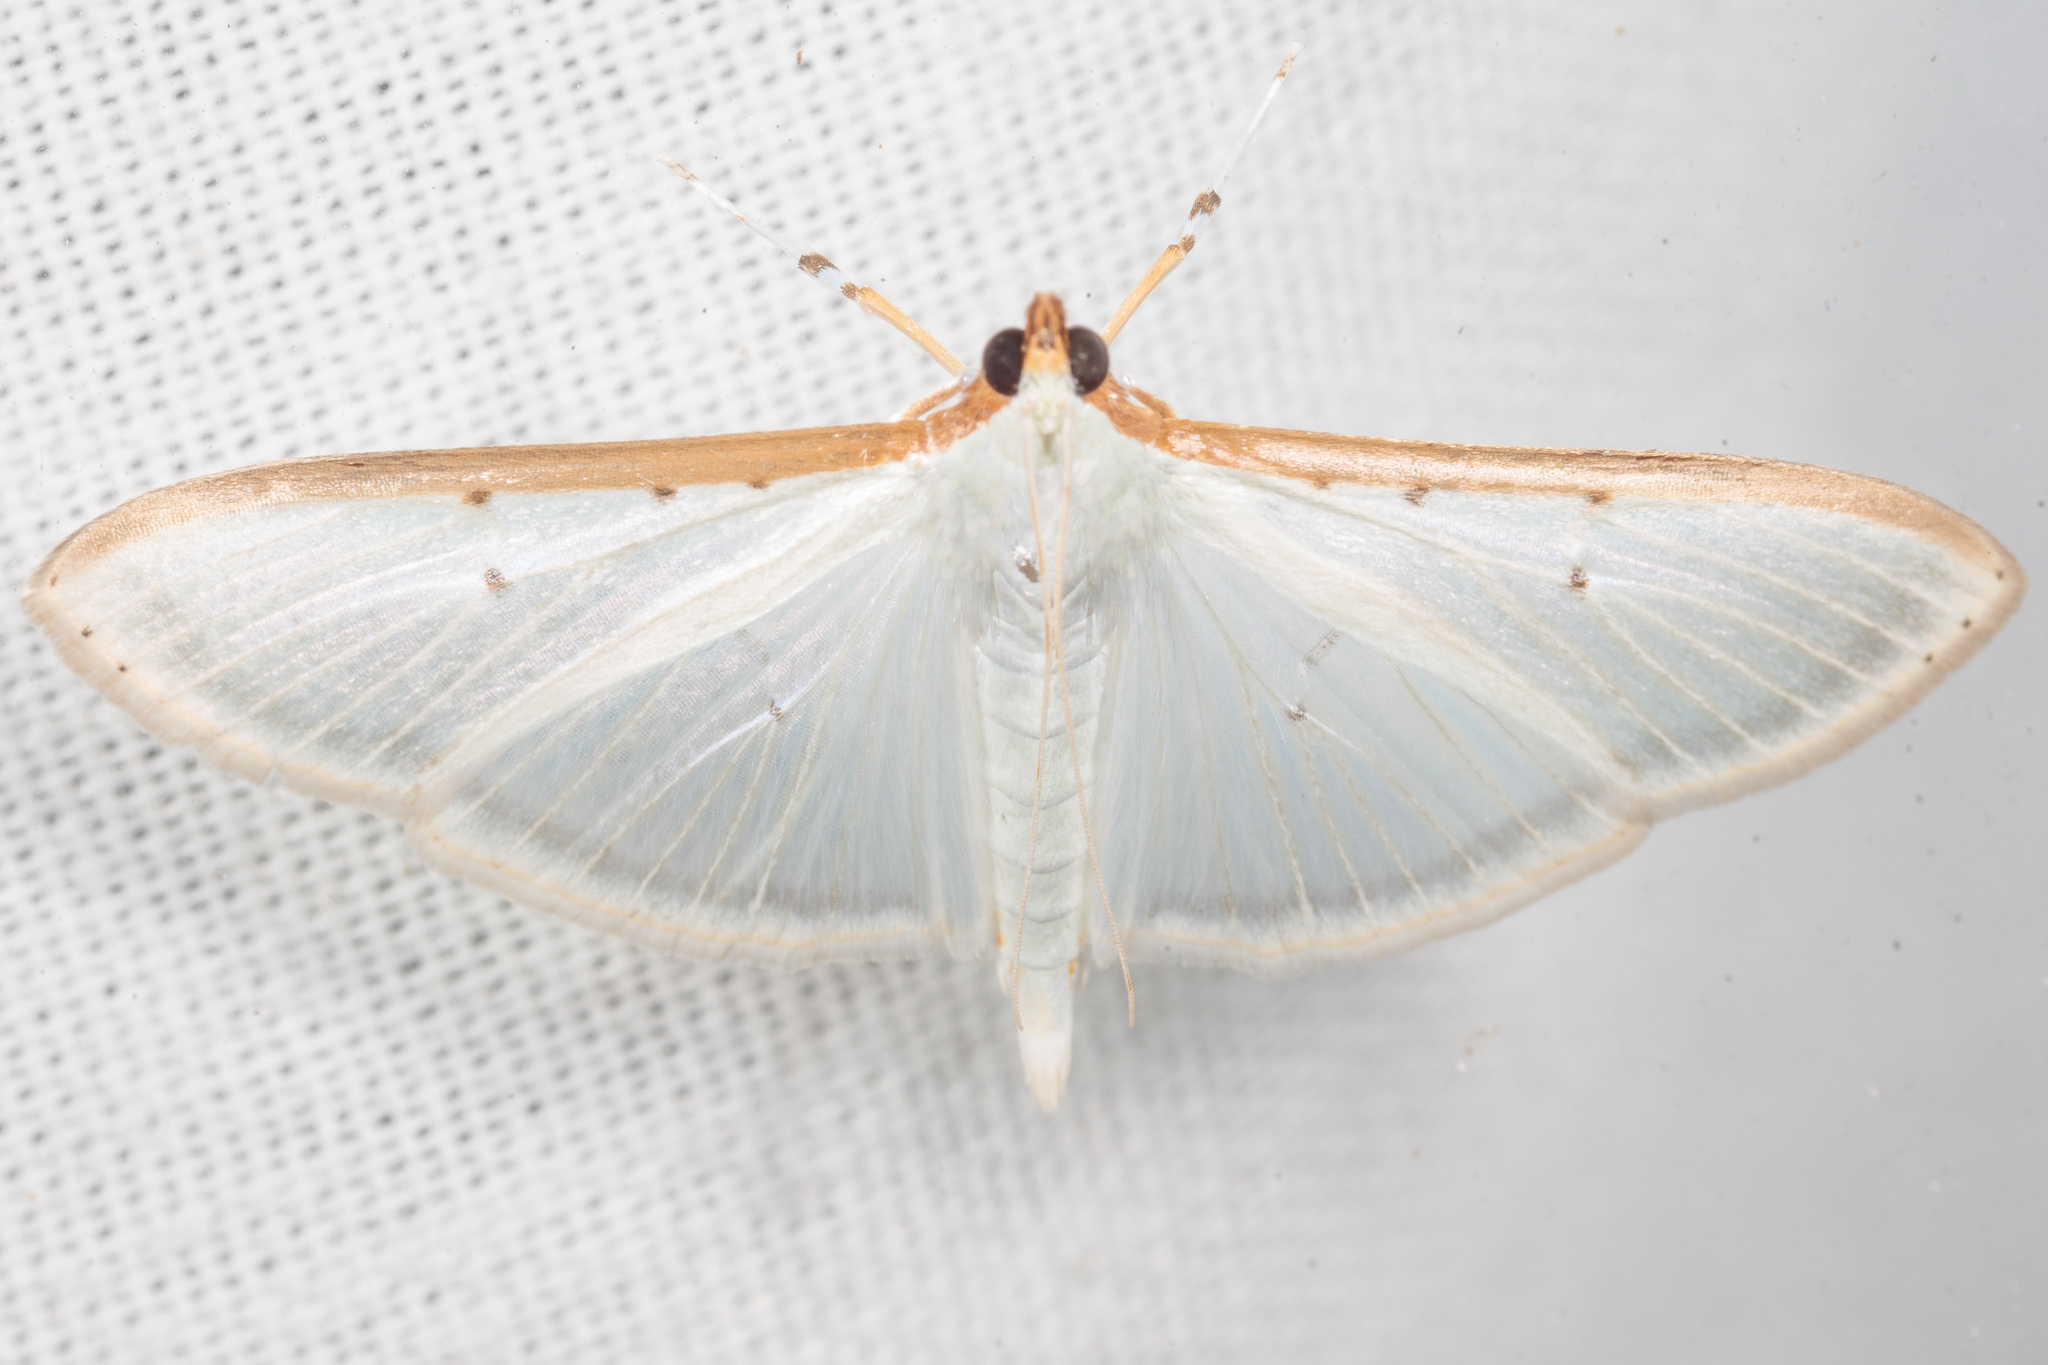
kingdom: Animalia
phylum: Arthropoda
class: Insecta
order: Lepidoptera
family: Crambidae
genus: Palpita
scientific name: Palpita quadristigmalis
